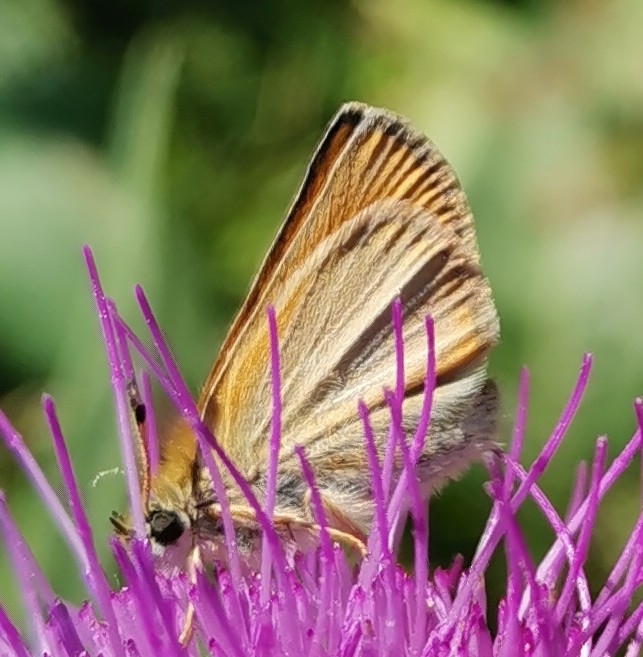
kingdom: Animalia
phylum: Arthropoda
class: Insecta
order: Lepidoptera
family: Hesperiidae
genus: Thymelicus
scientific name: Thymelicus lineola
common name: Essex skipper
